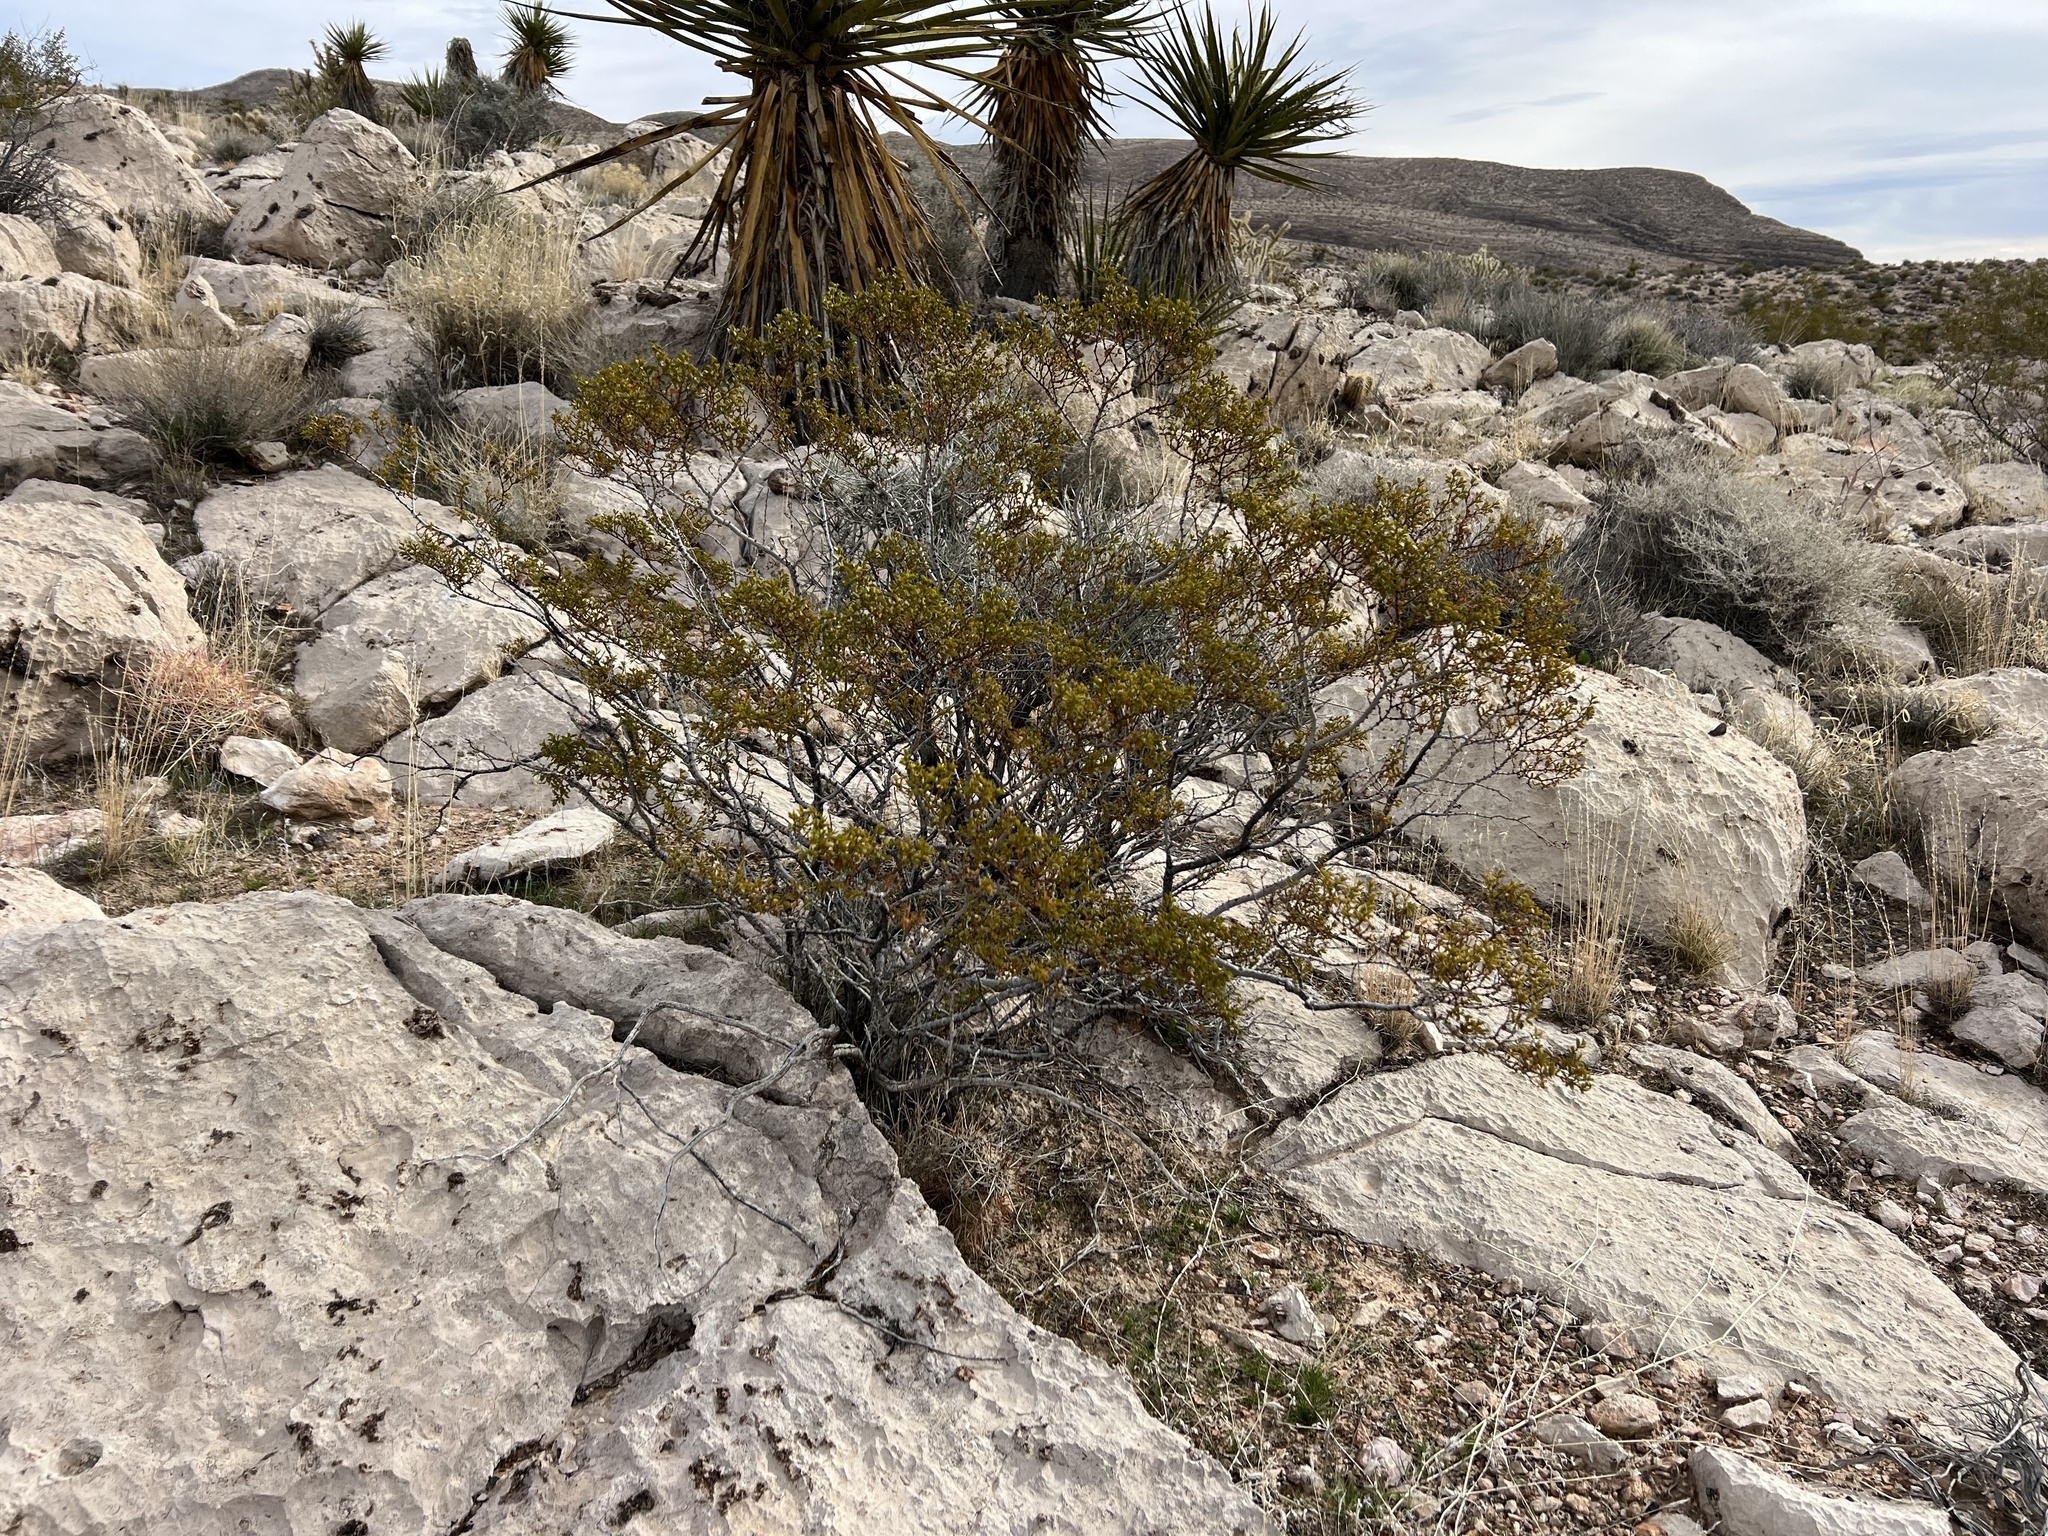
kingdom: Plantae
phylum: Tracheophyta
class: Magnoliopsida
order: Zygophyllales
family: Zygophyllaceae
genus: Larrea
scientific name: Larrea tridentata
